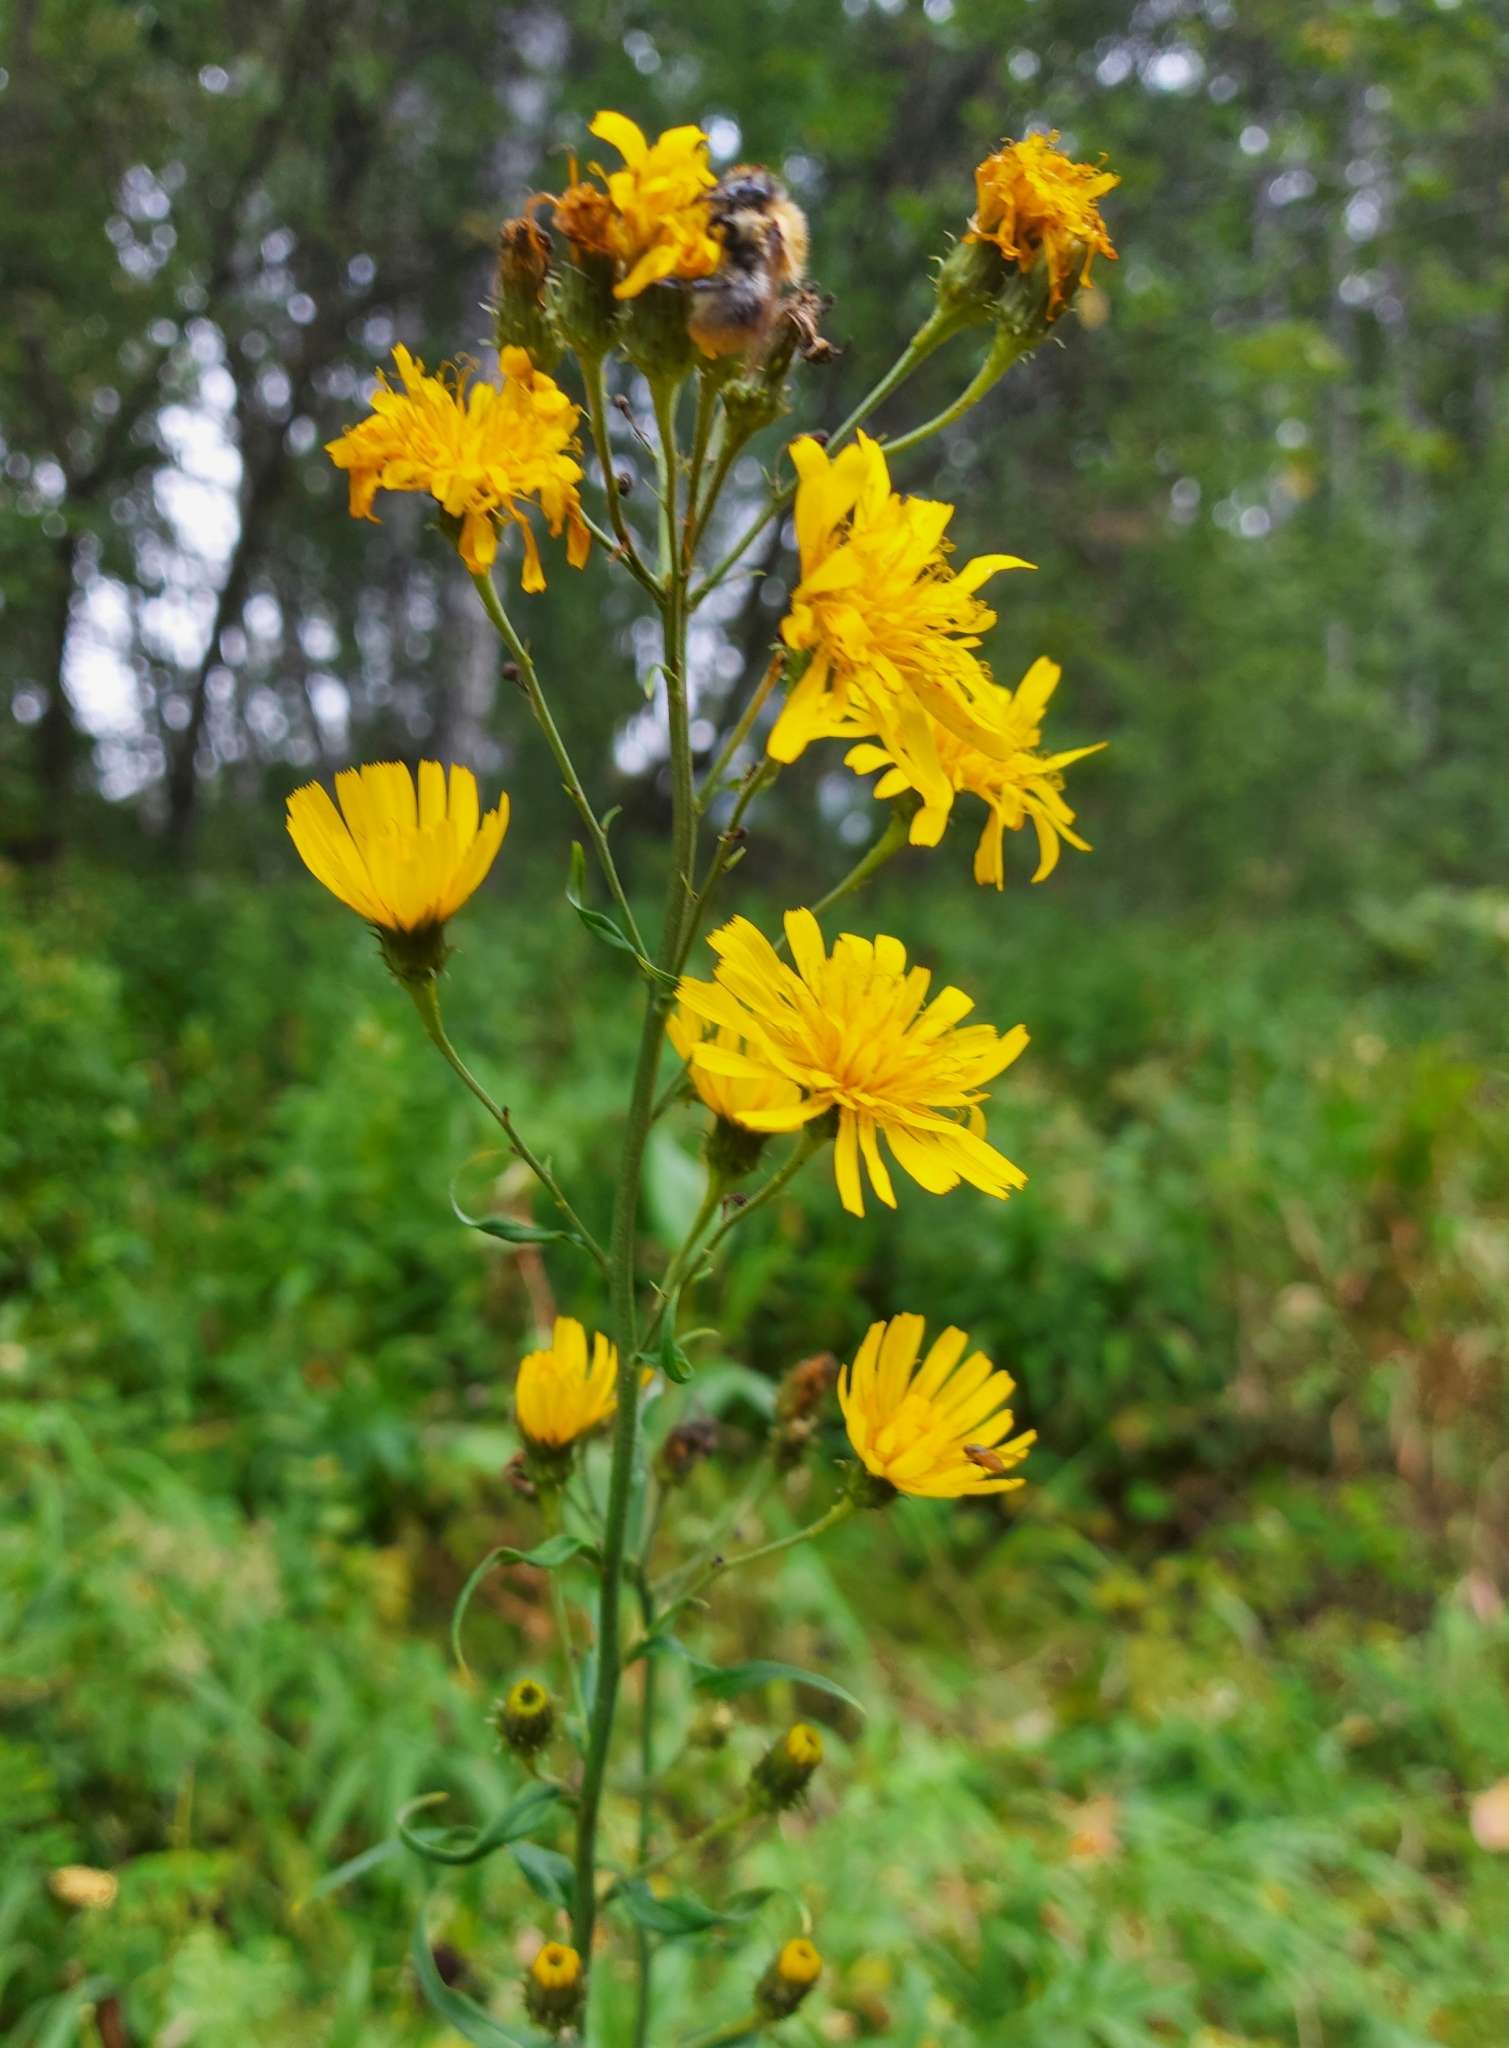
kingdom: Plantae
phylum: Tracheophyta
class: Magnoliopsida
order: Asterales
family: Asteraceae
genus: Hieracium
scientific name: Hieracium umbellatum
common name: Northern hawkweed
